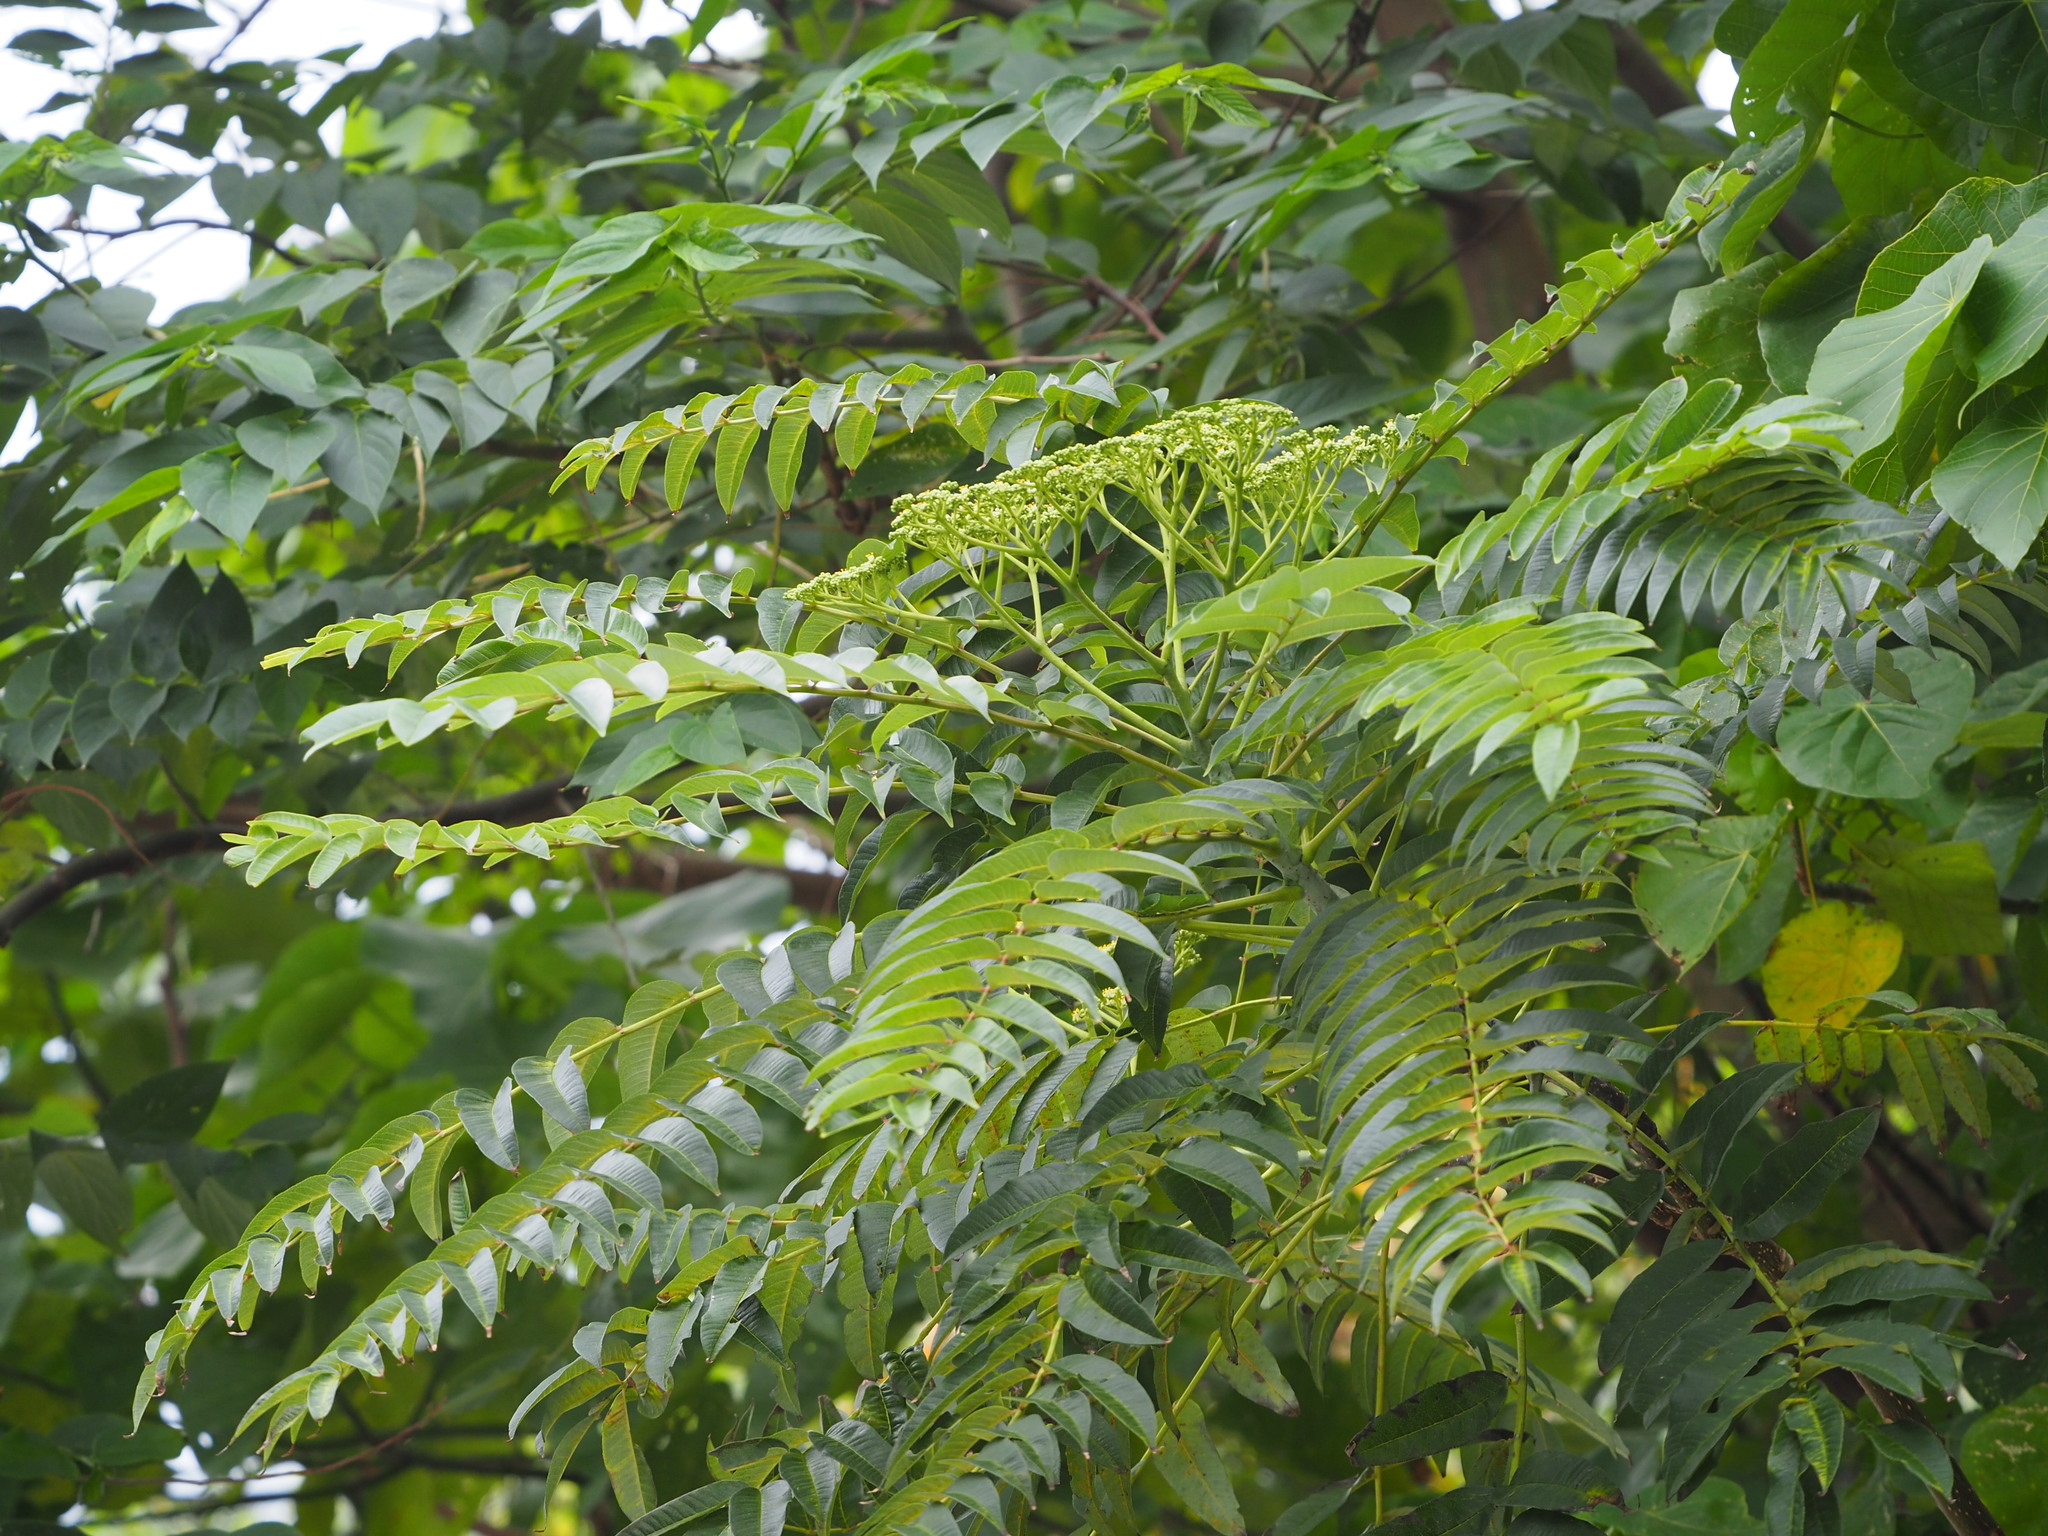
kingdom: Plantae
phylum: Tracheophyta
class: Magnoliopsida
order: Sapindales
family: Rutaceae
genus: Zanthoxylum
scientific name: Zanthoxylum ailanthoides
